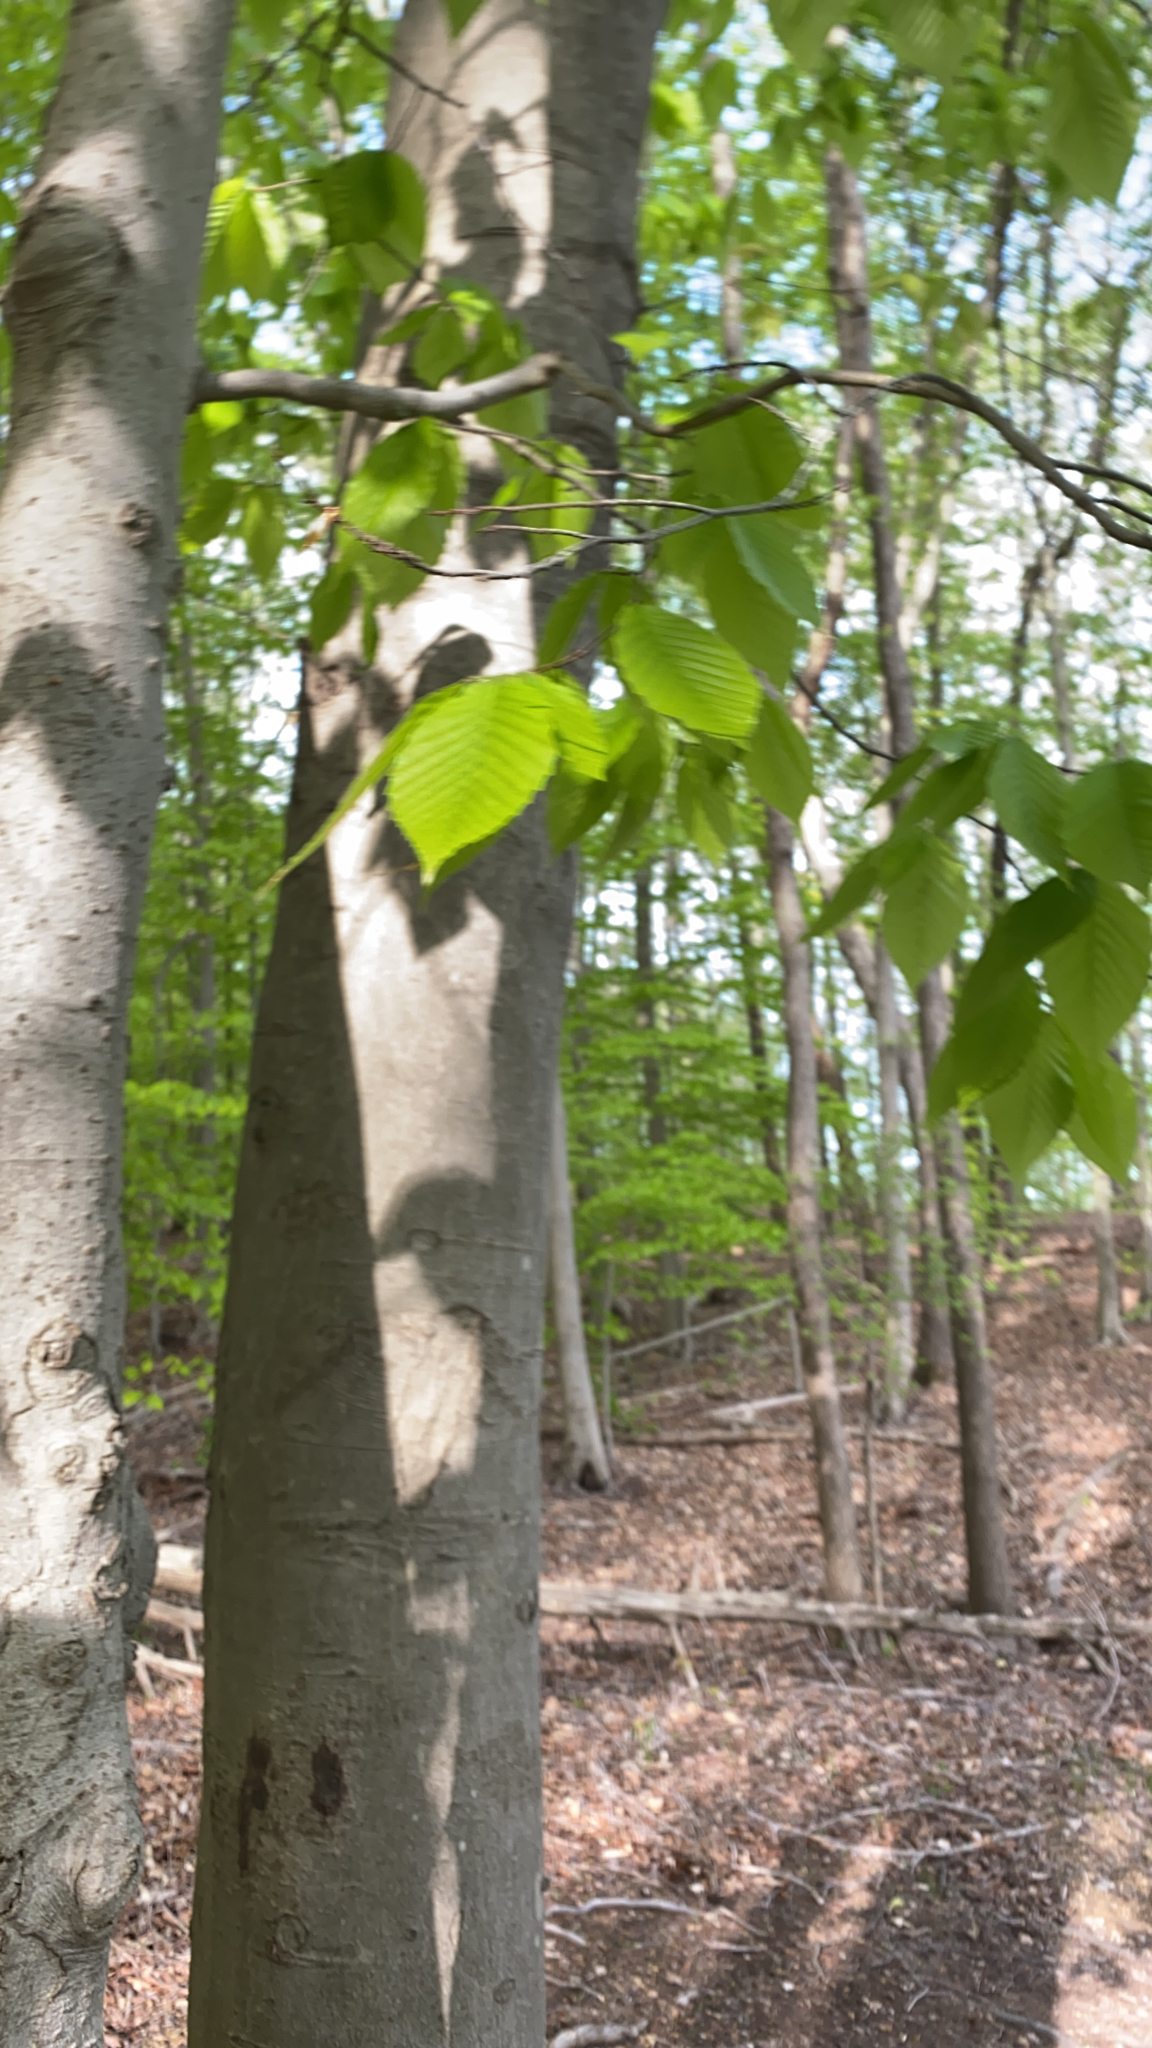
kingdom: Plantae
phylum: Tracheophyta
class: Magnoliopsida
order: Fagales
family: Fagaceae
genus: Fagus
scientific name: Fagus grandifolia
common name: American beech
